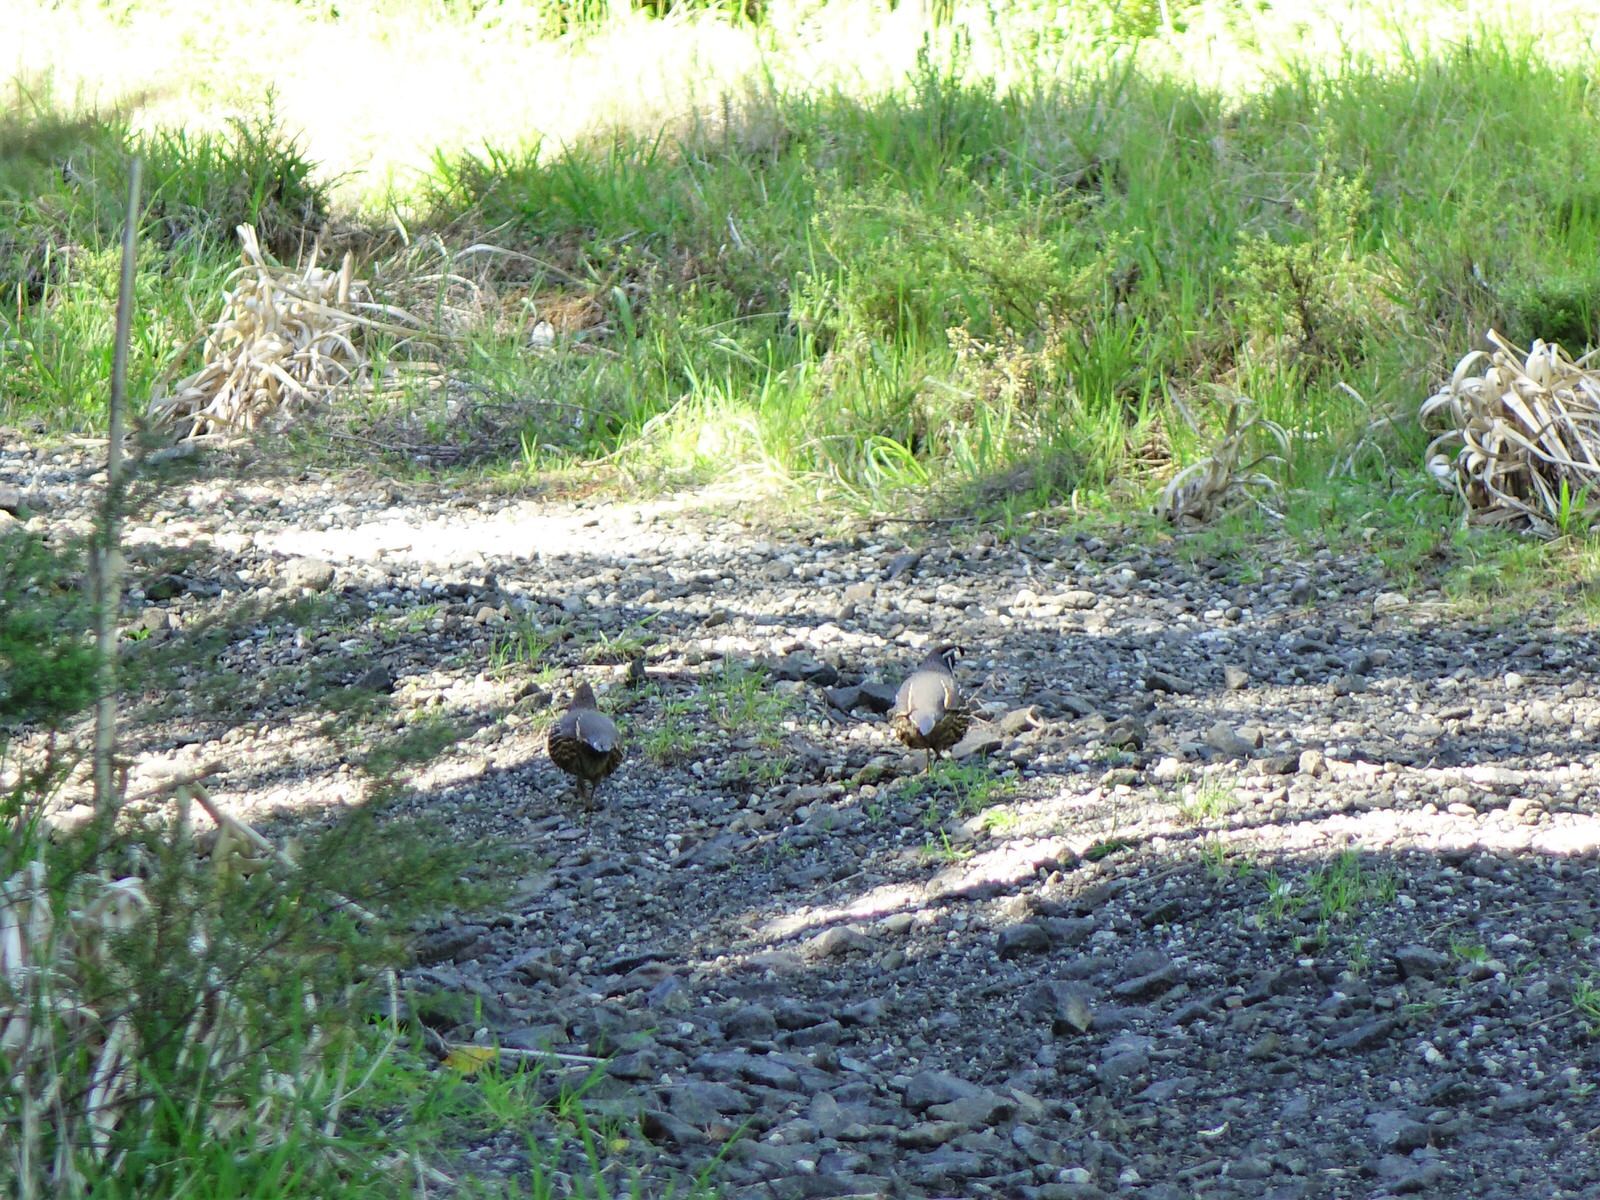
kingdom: Animalia
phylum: Chordata
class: Aves
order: Galliformes
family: Odontophoridae
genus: Callipepla
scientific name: Callipepla californica
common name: California quail
